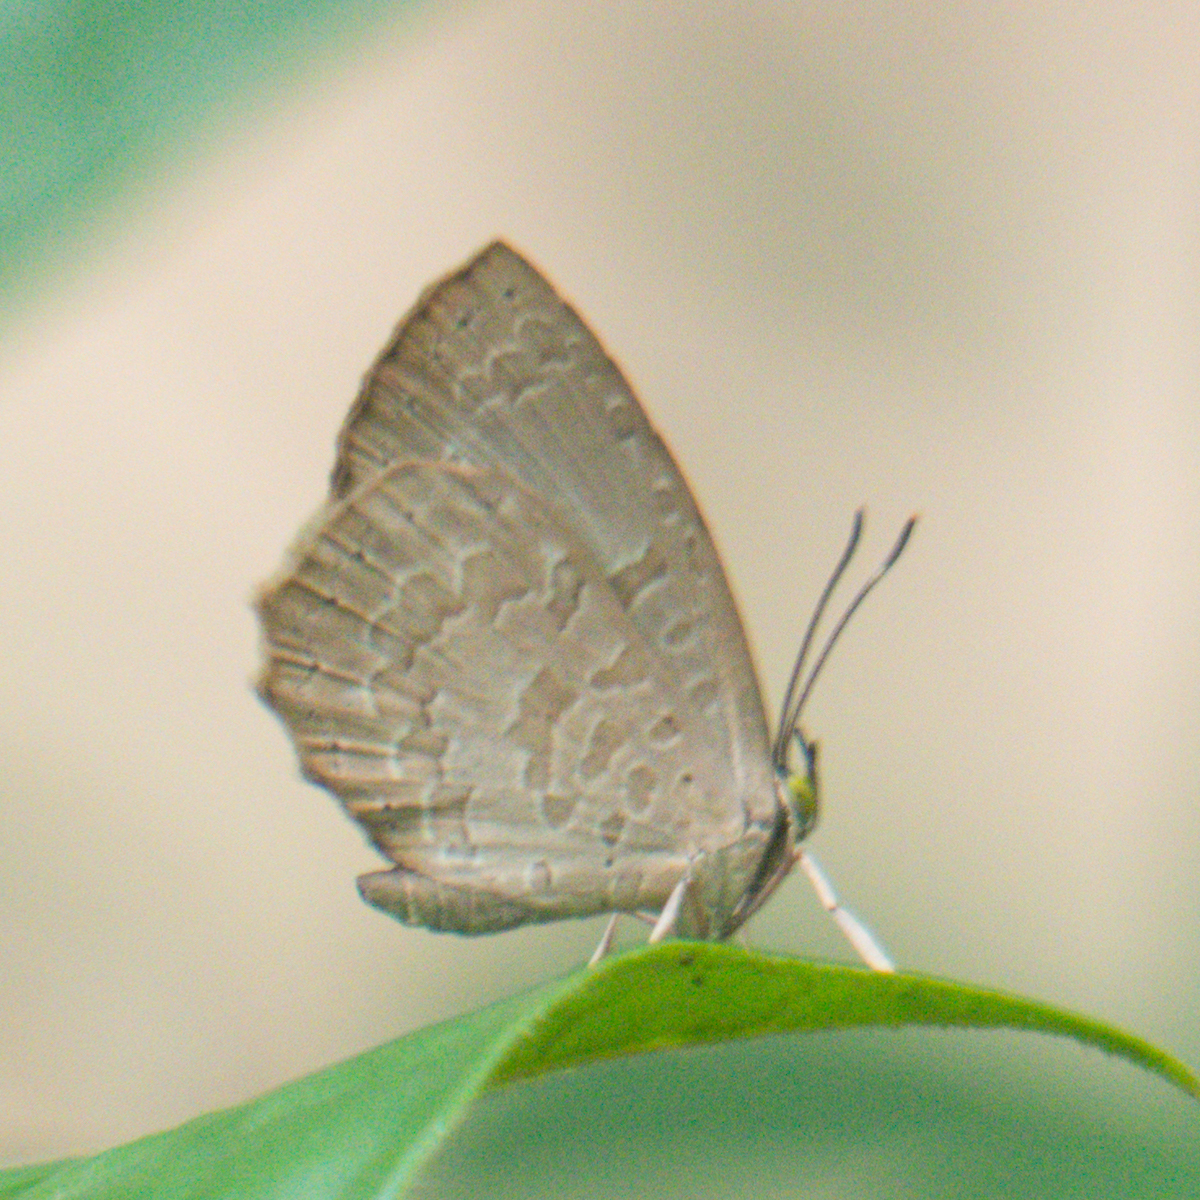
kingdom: Animalia
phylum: Arthropoda
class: Insecta
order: Lepidoptera
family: Lycaenidae
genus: Miletus
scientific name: Miletus chinensis
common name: Common brownie
